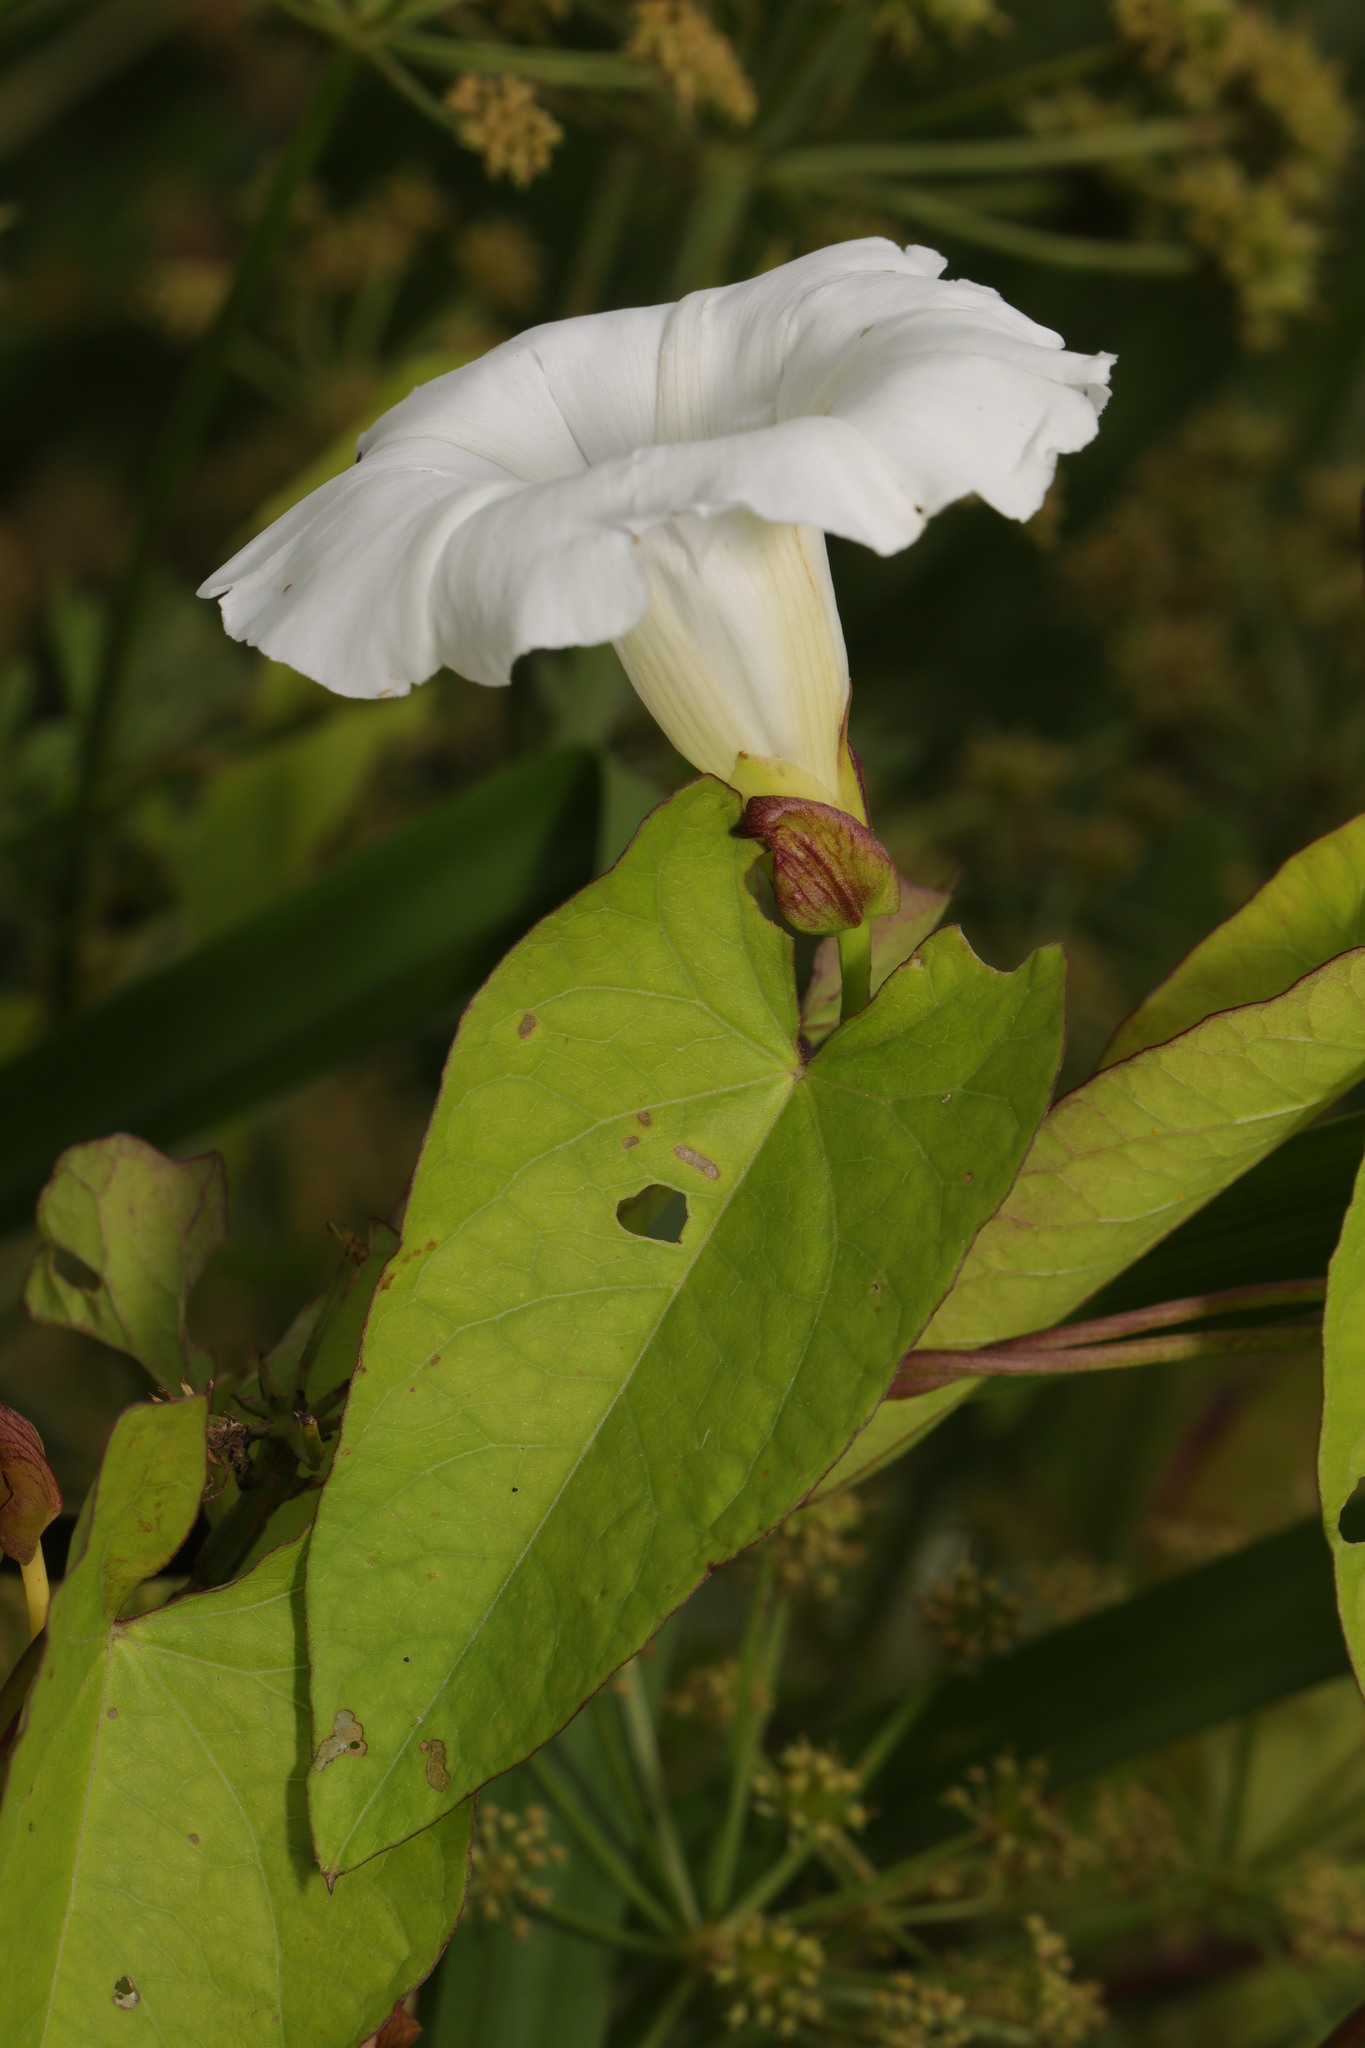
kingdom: Plantae
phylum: Tracheophyta
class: Magnoliopsida
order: Solanales
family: Convolvulaceae
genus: Calystegia
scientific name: Calystegia silvatica
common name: Large bindweed
